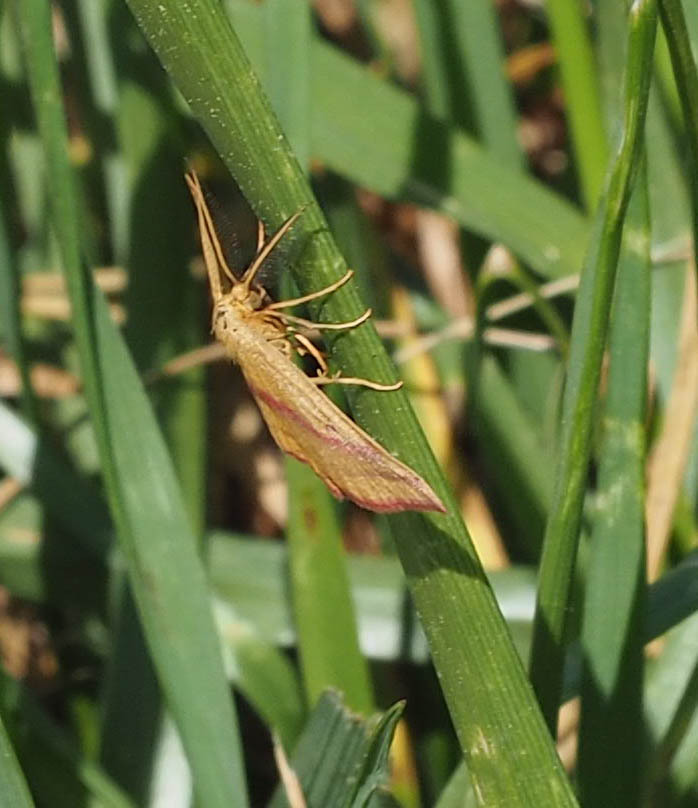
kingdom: Animalia
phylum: Arthropoda
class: Insecta
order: Lepidoptera
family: Geometridae
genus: Haematopis
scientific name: Haematopis grataria
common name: Chickweed geometer
